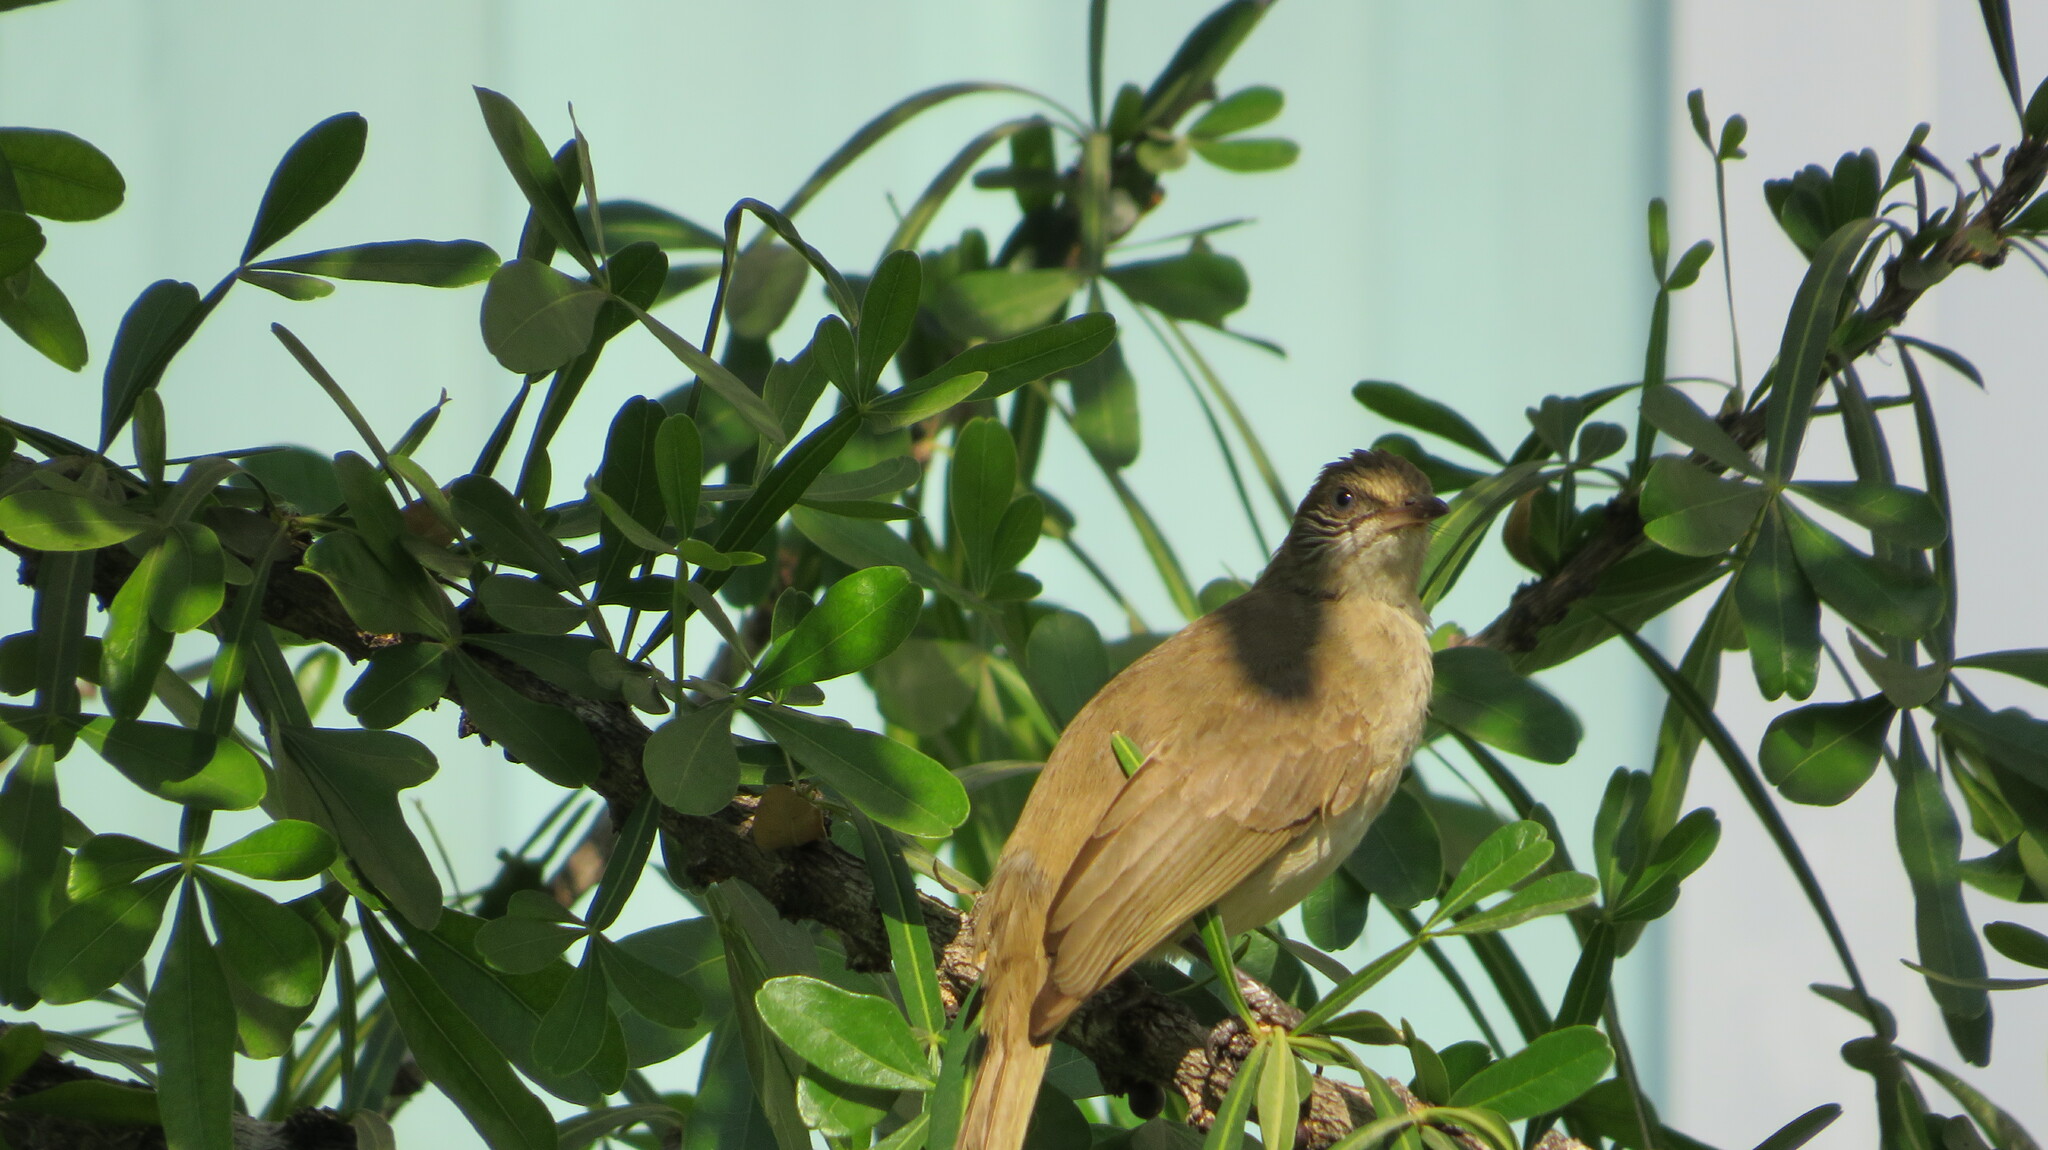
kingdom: Animalia
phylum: Chordata
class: Aves
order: Passeriformes
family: Pycnonotidae
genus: Pycnonotus
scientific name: Pycnonotus blanfordi
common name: Streak-eared bulbul
